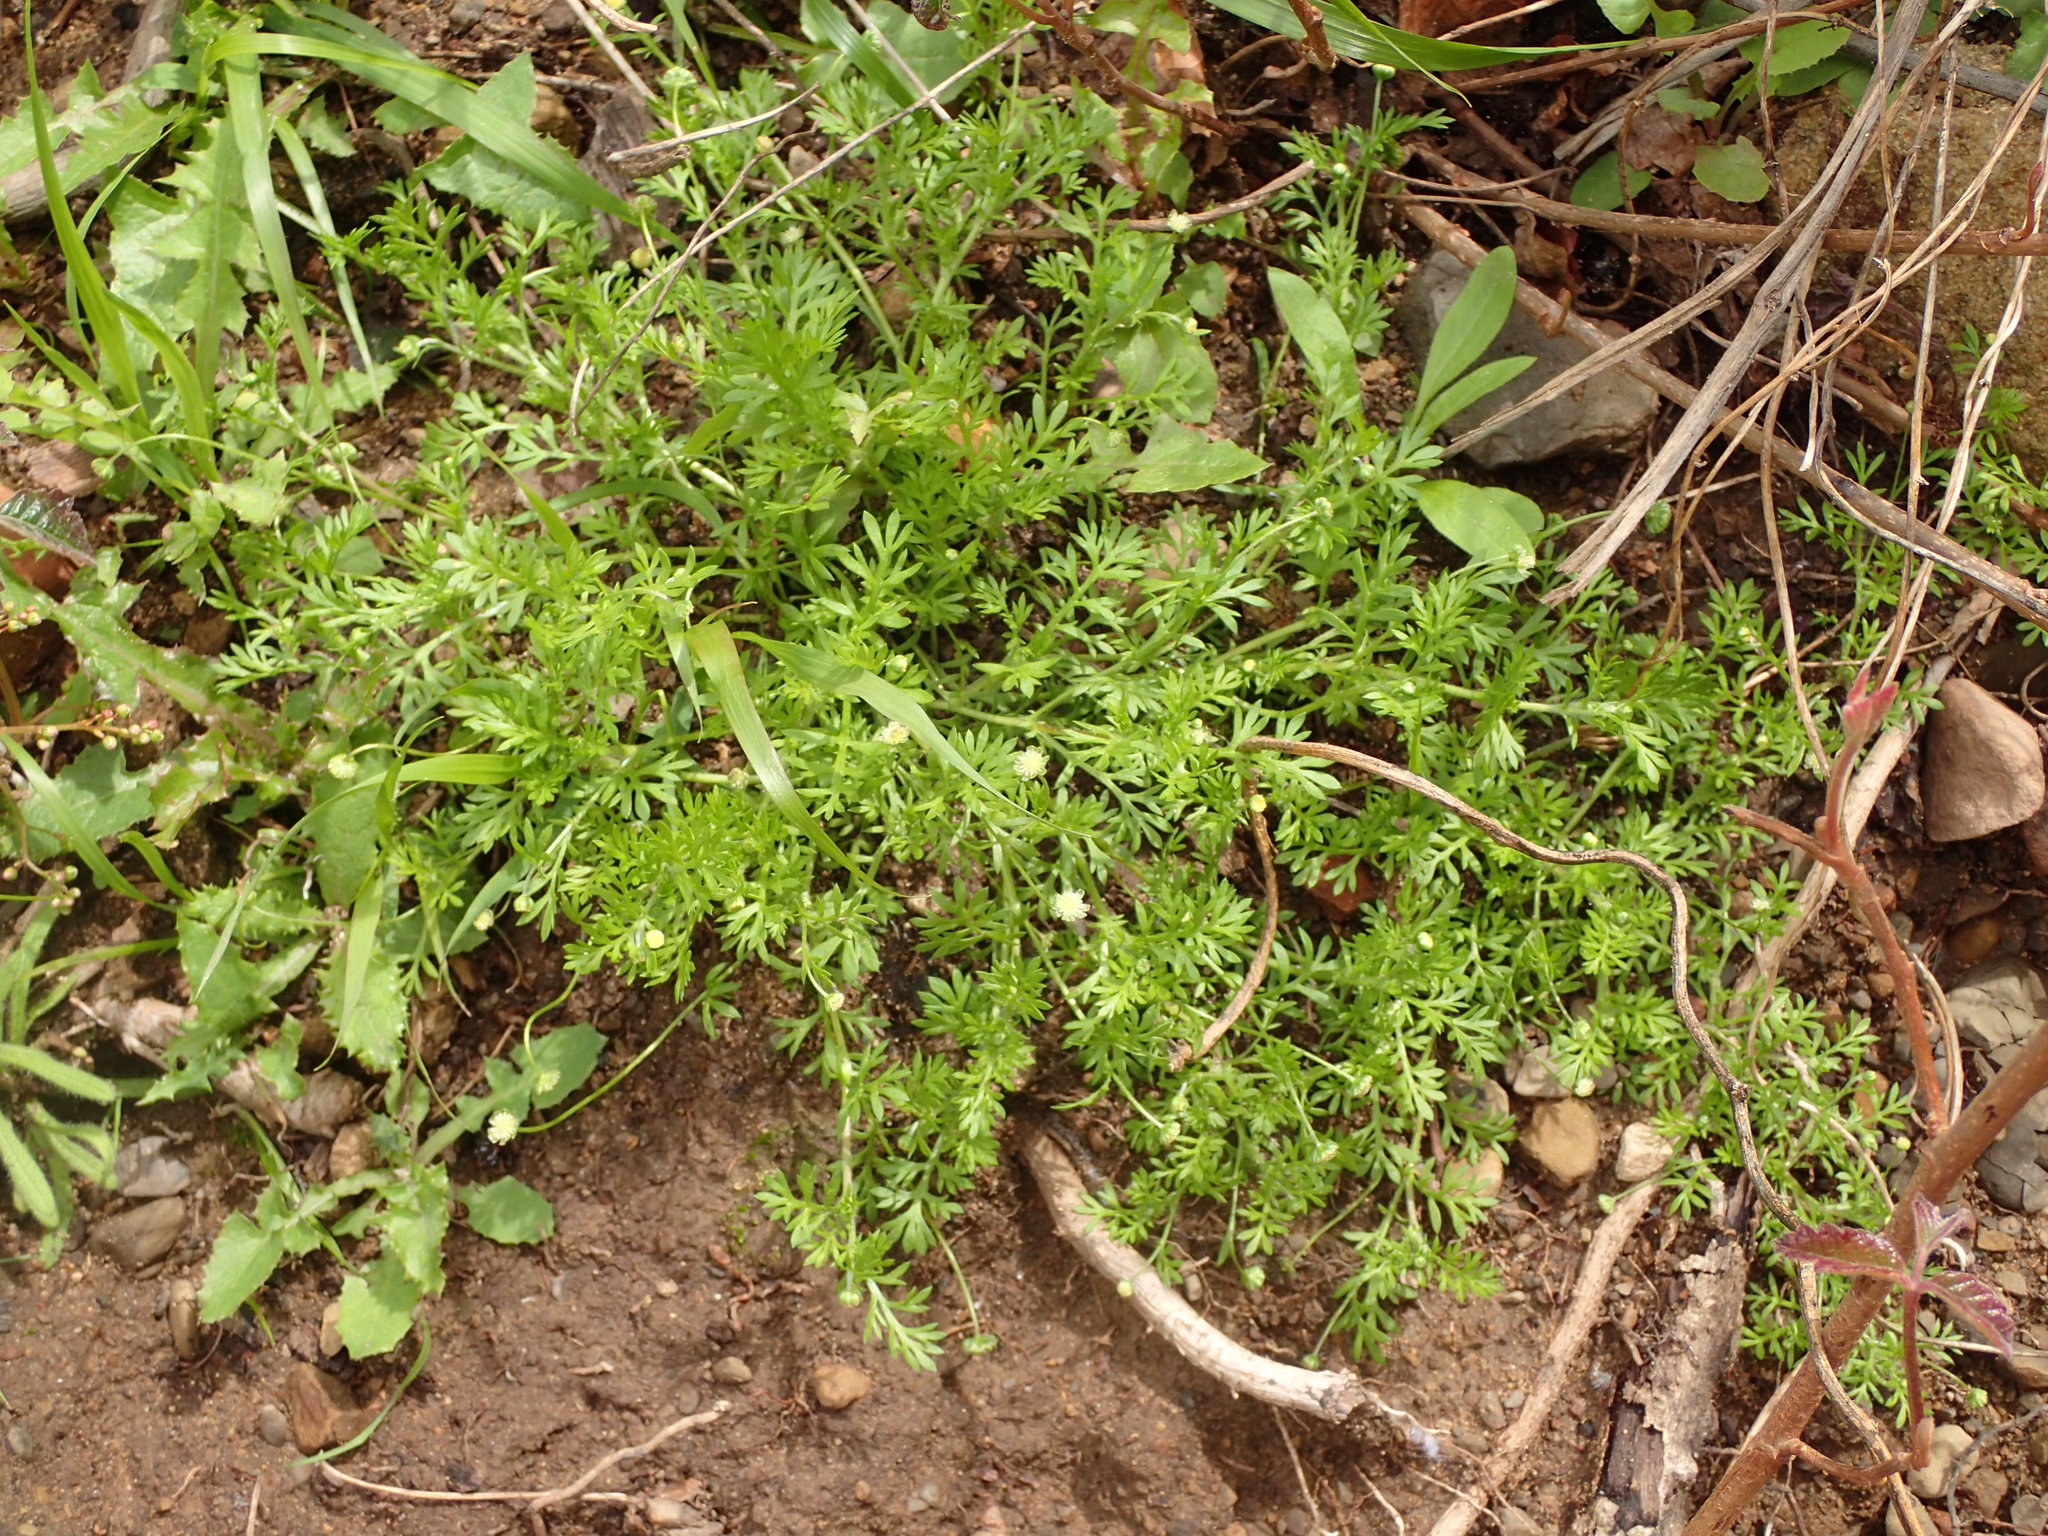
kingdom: Plantae
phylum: Tracheophyta
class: Magnoliopsida
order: Asterales
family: Asteraceae
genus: Cotula
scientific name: Cotula australis
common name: Australian waterbuttons
